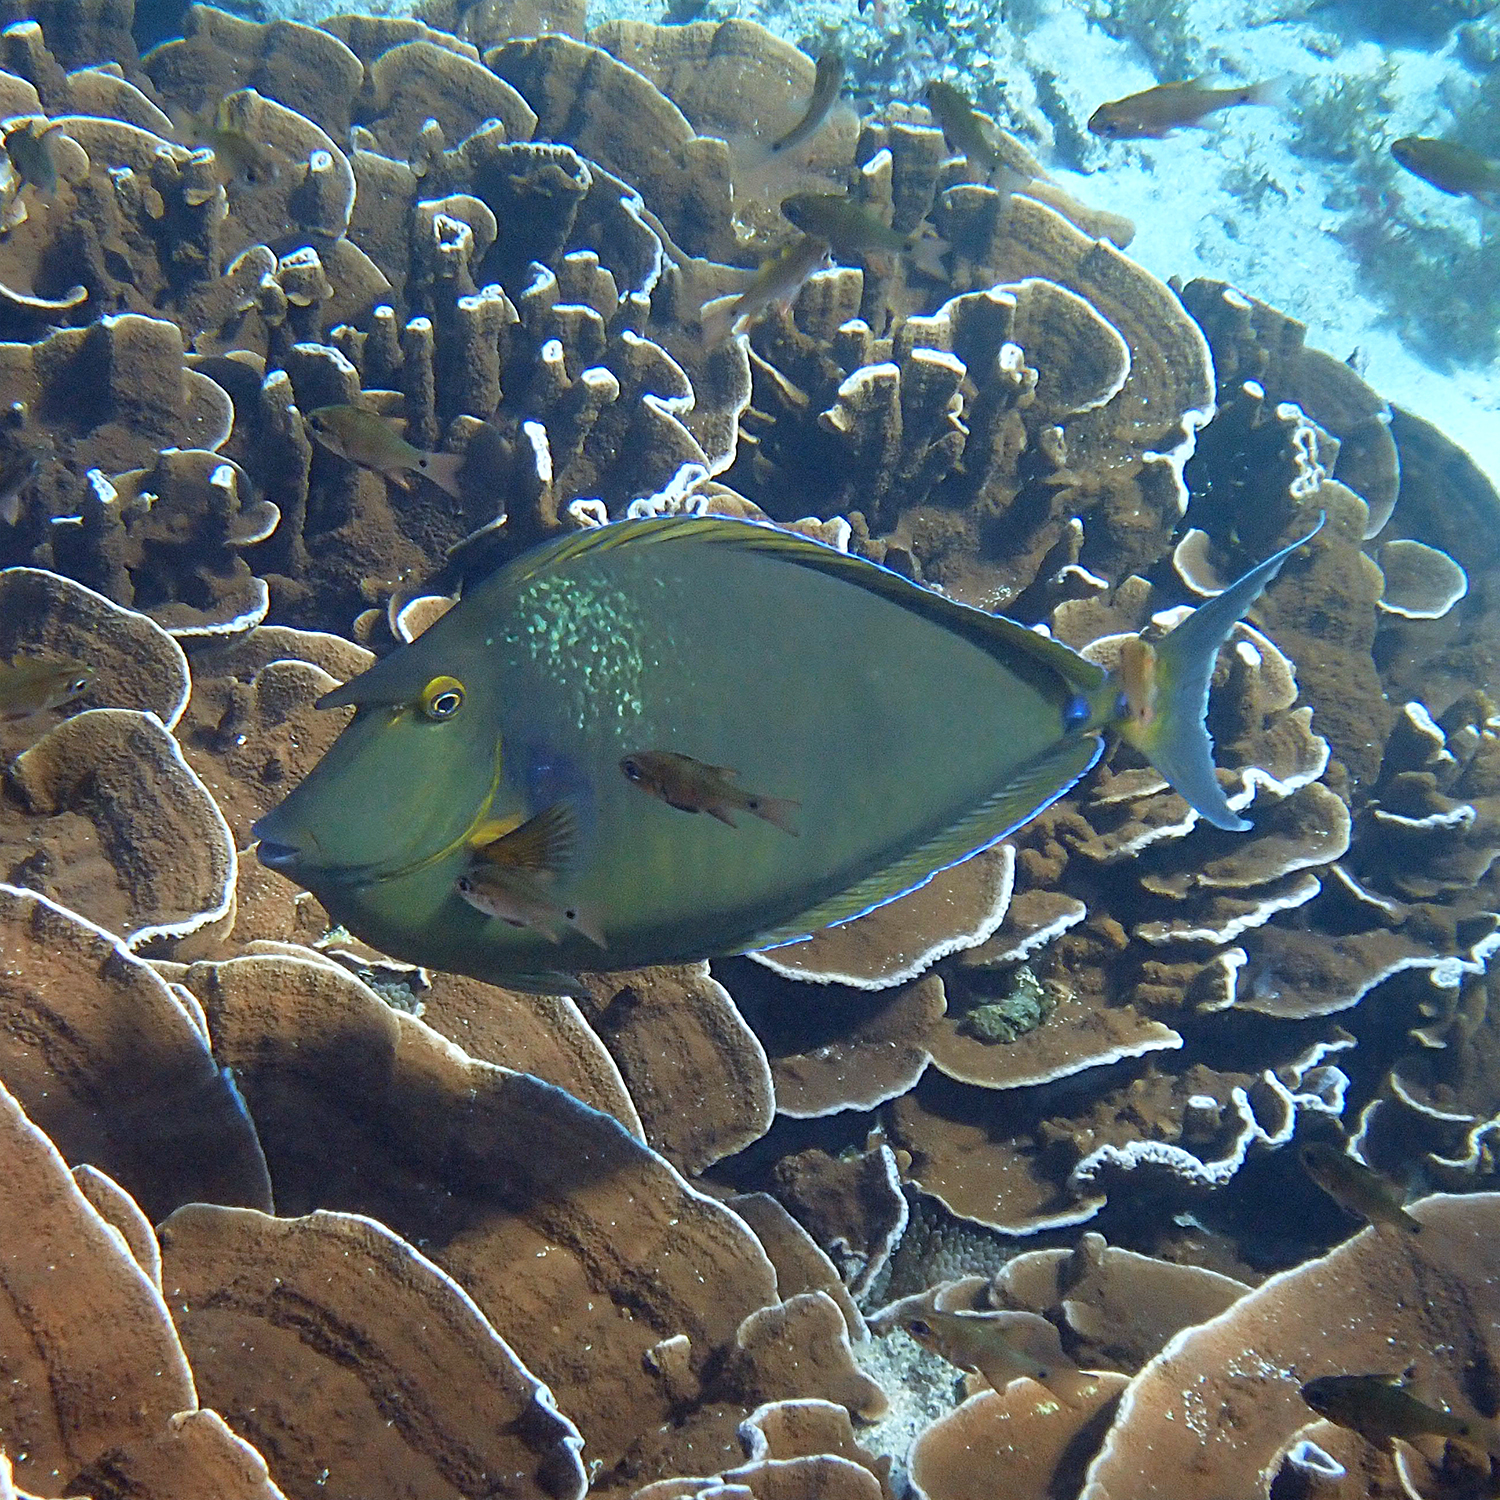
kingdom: Animalia
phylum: Chordata
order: Perciformes
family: Acanthuridae
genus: Naso
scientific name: Naso unicornis
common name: Bluespine unicornfish
